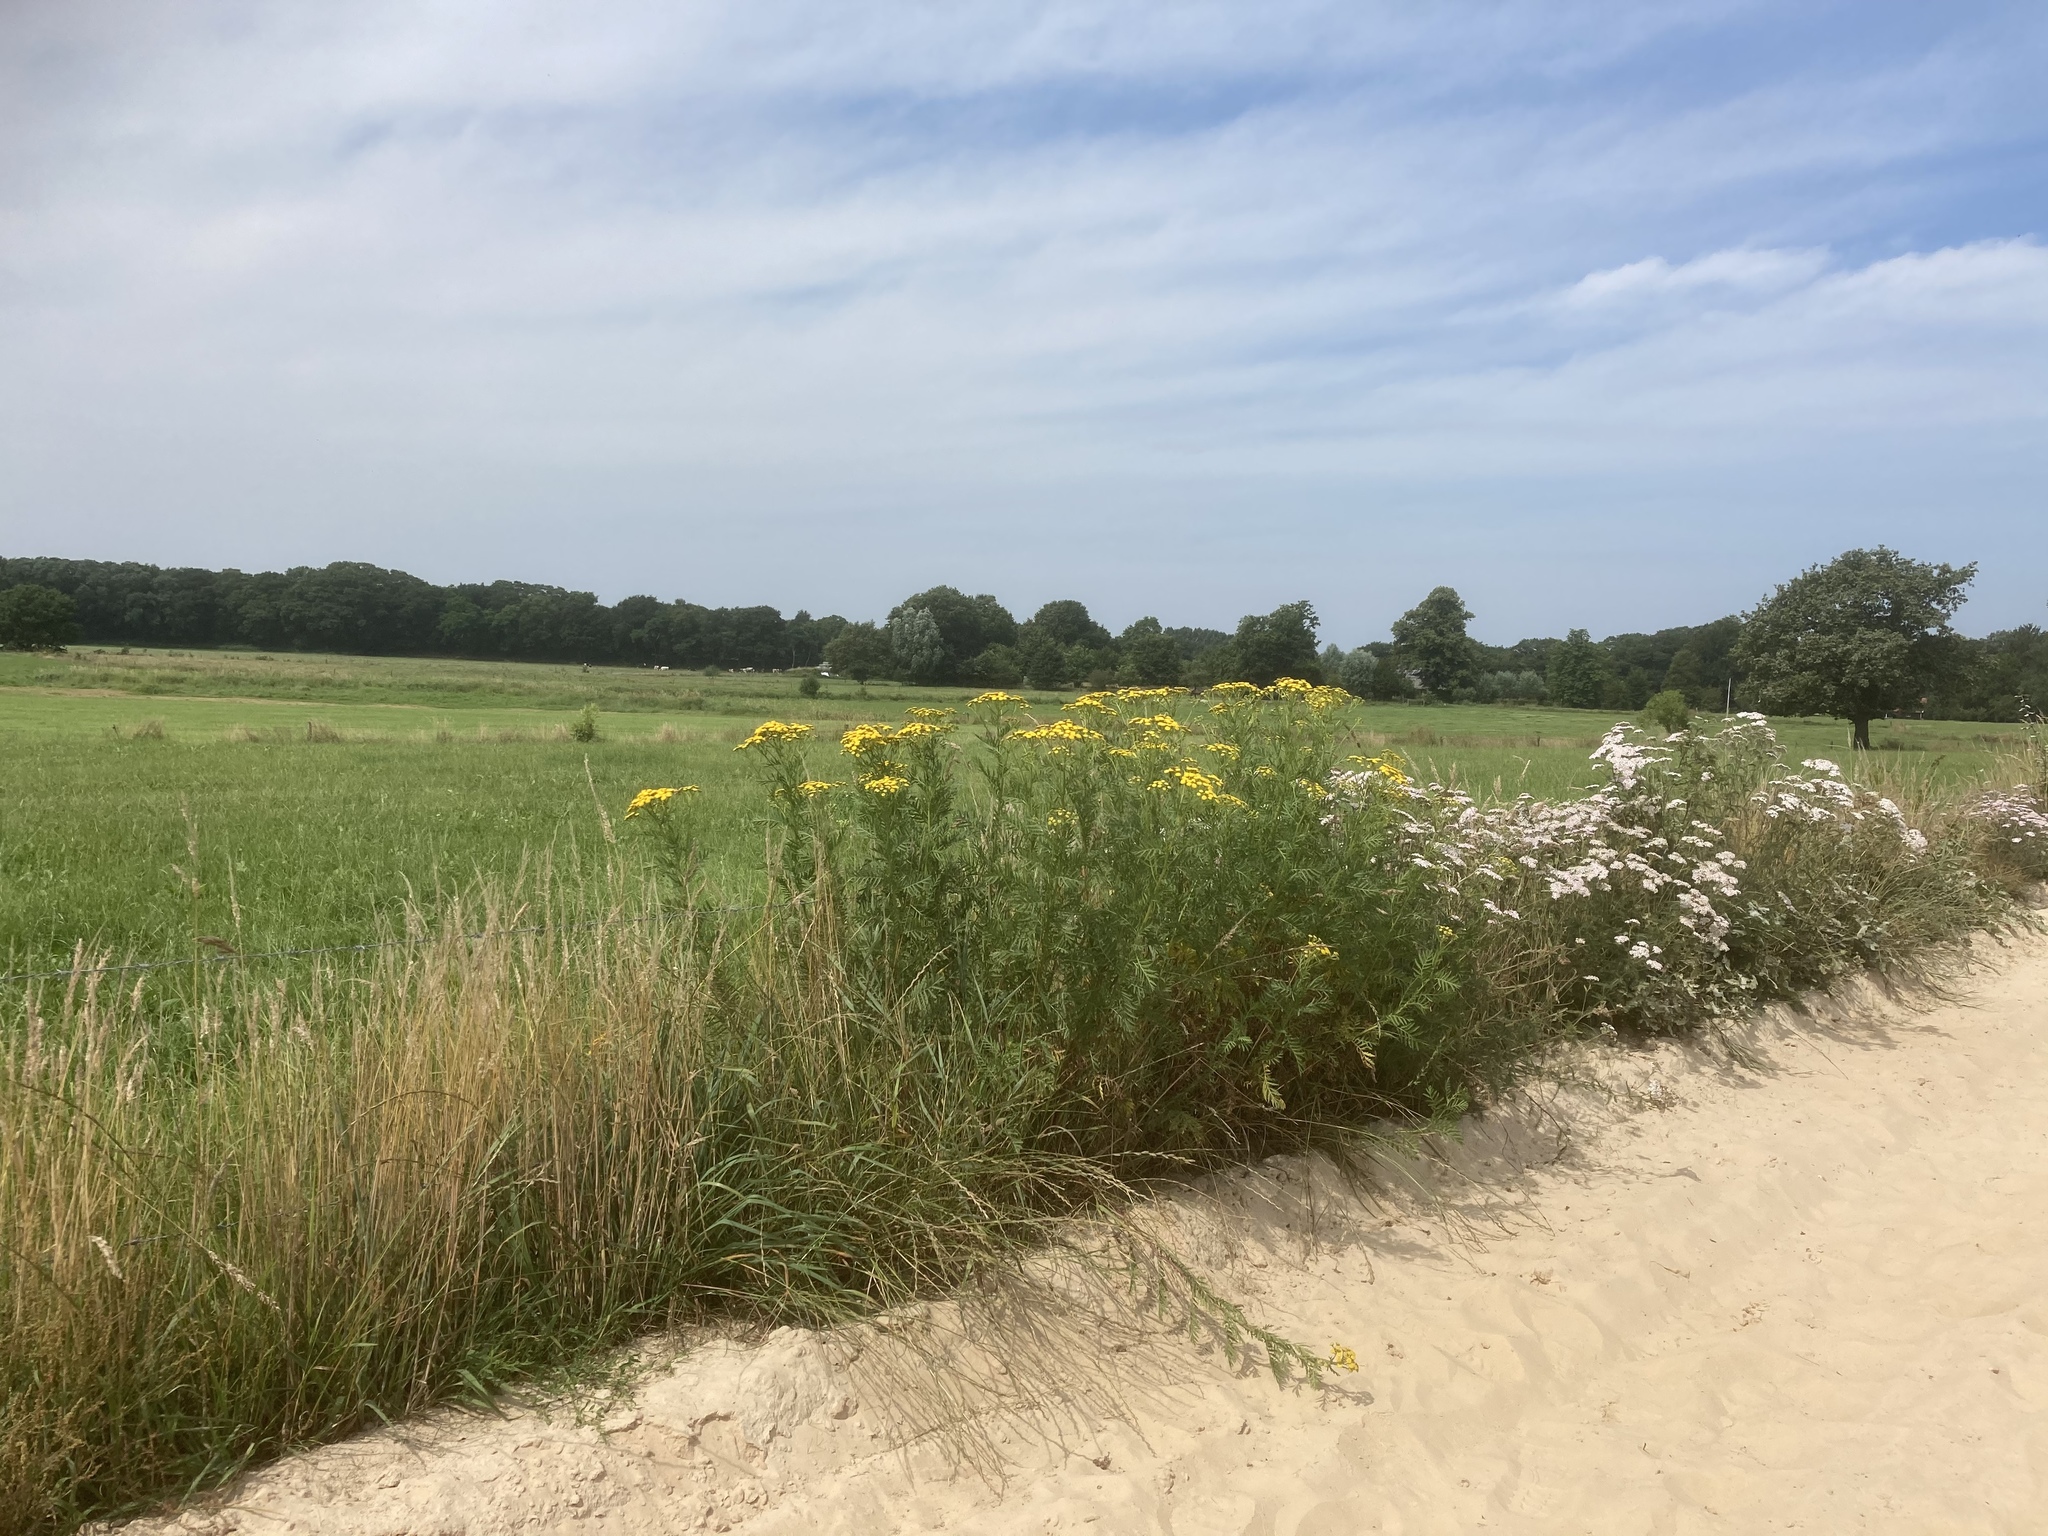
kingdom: Plantae
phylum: Tracheophyta
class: Magnoliopsida
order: Asterales
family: Asteraceae
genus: Tanacetum
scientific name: Tanacetum vulgare
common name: Common tansy
